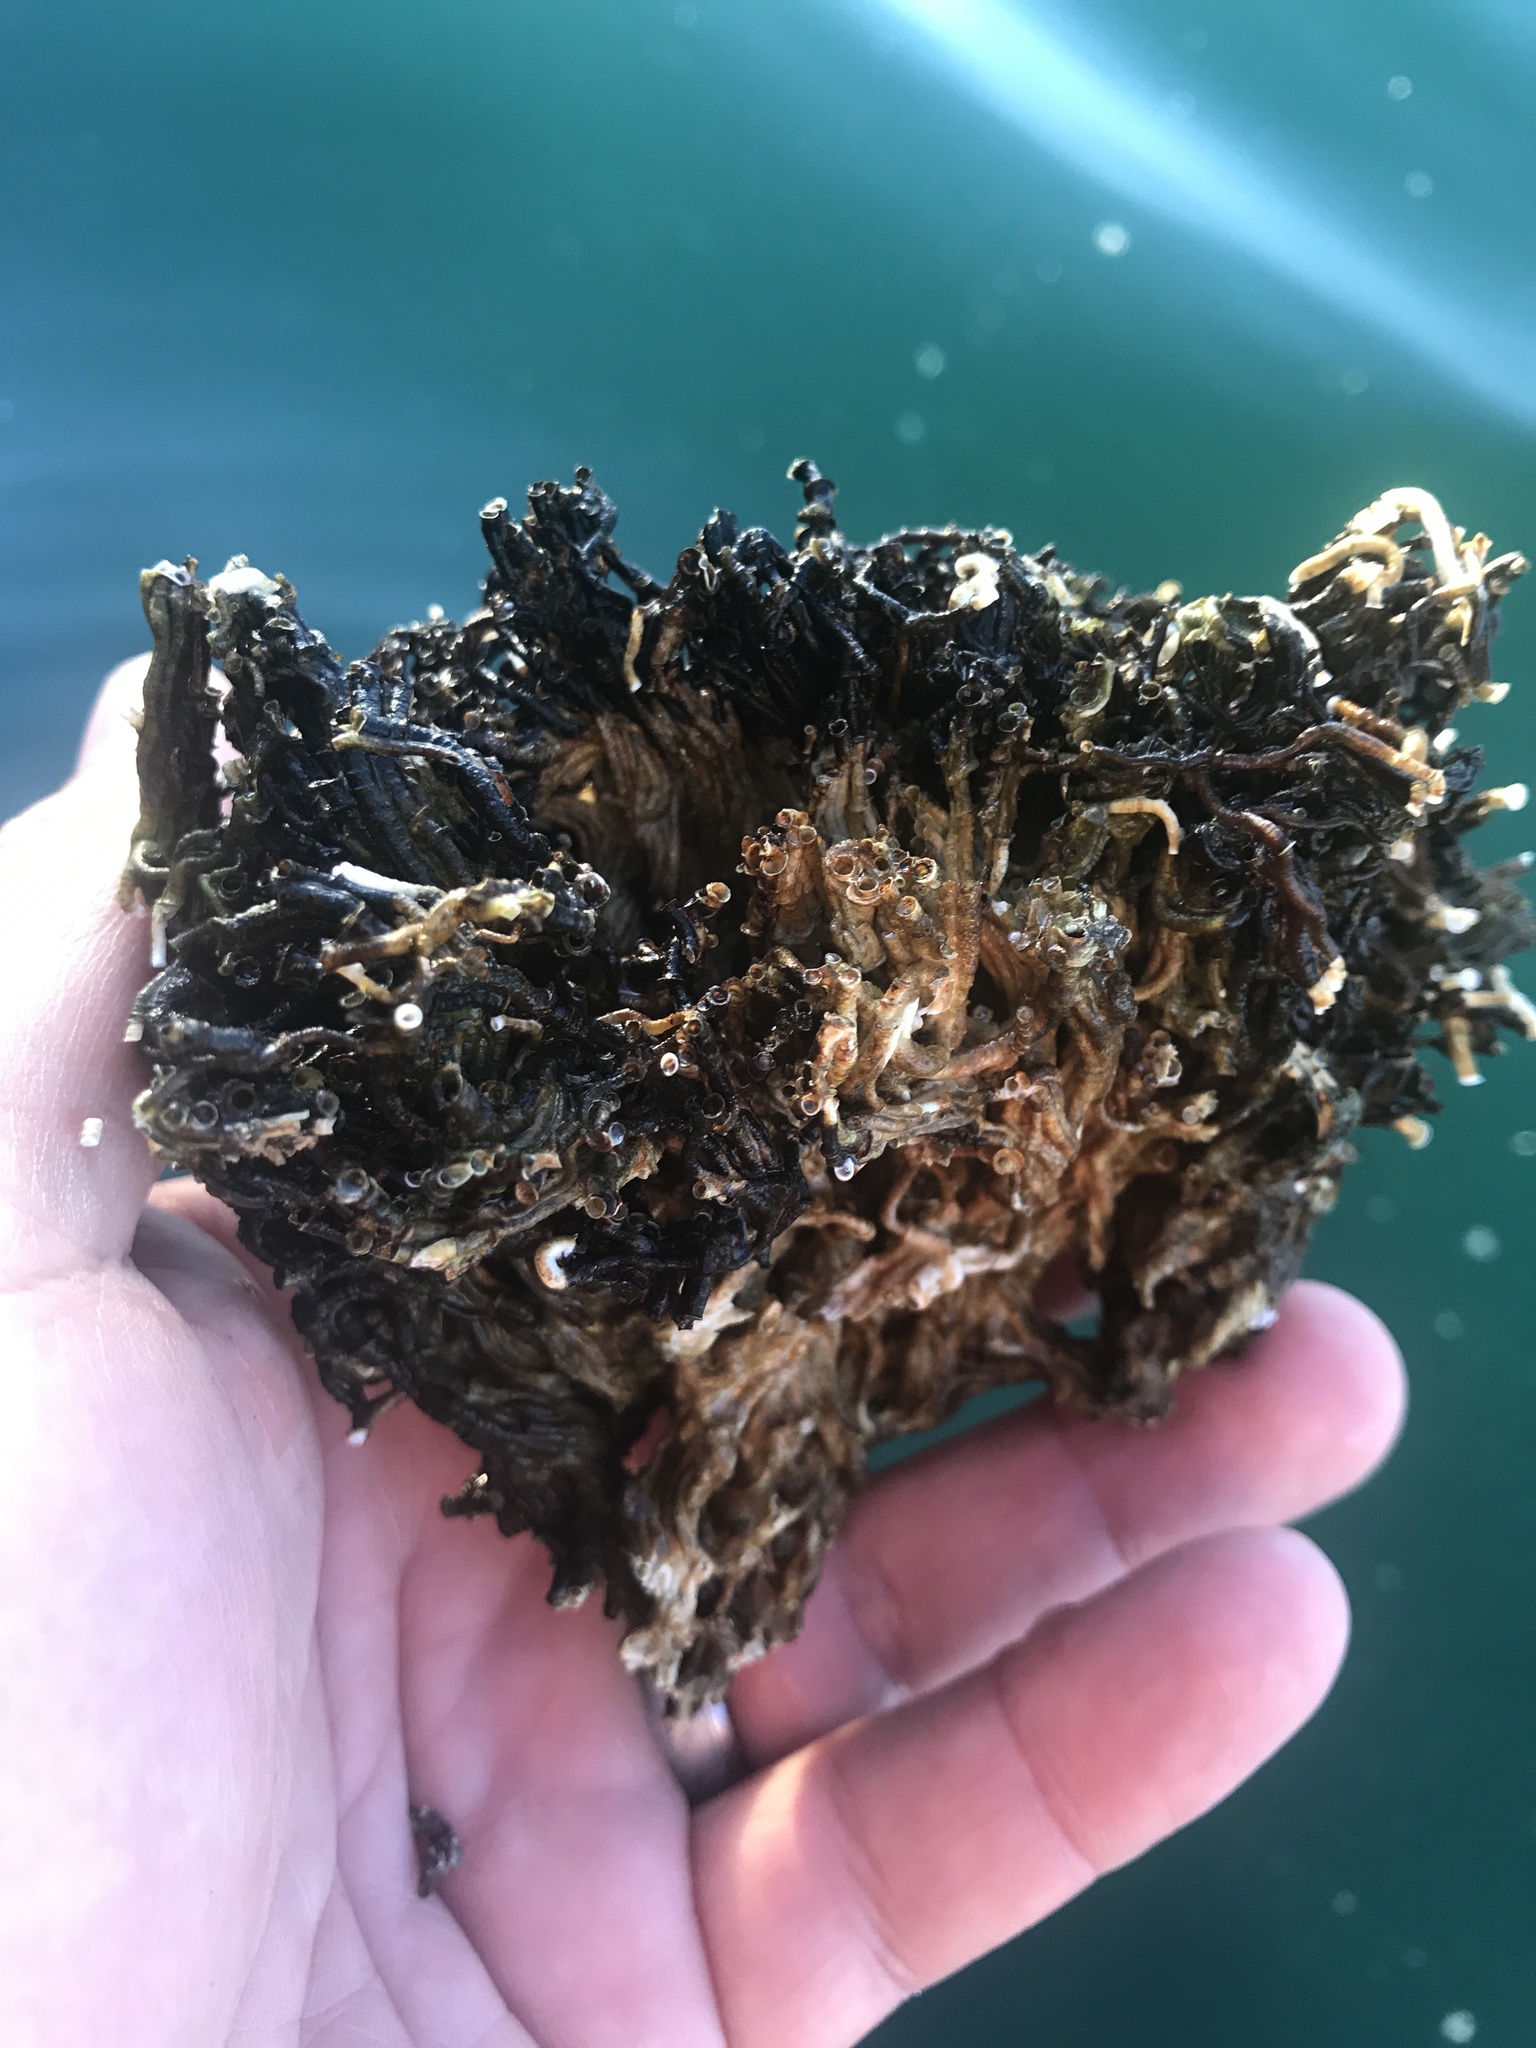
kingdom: Animalia
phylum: Annelida
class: Polychaeta
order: Sabellida
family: Serpulidae
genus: Ficopomatus
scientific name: Ficopomatus enigmaticus
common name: Australian tubeworm
